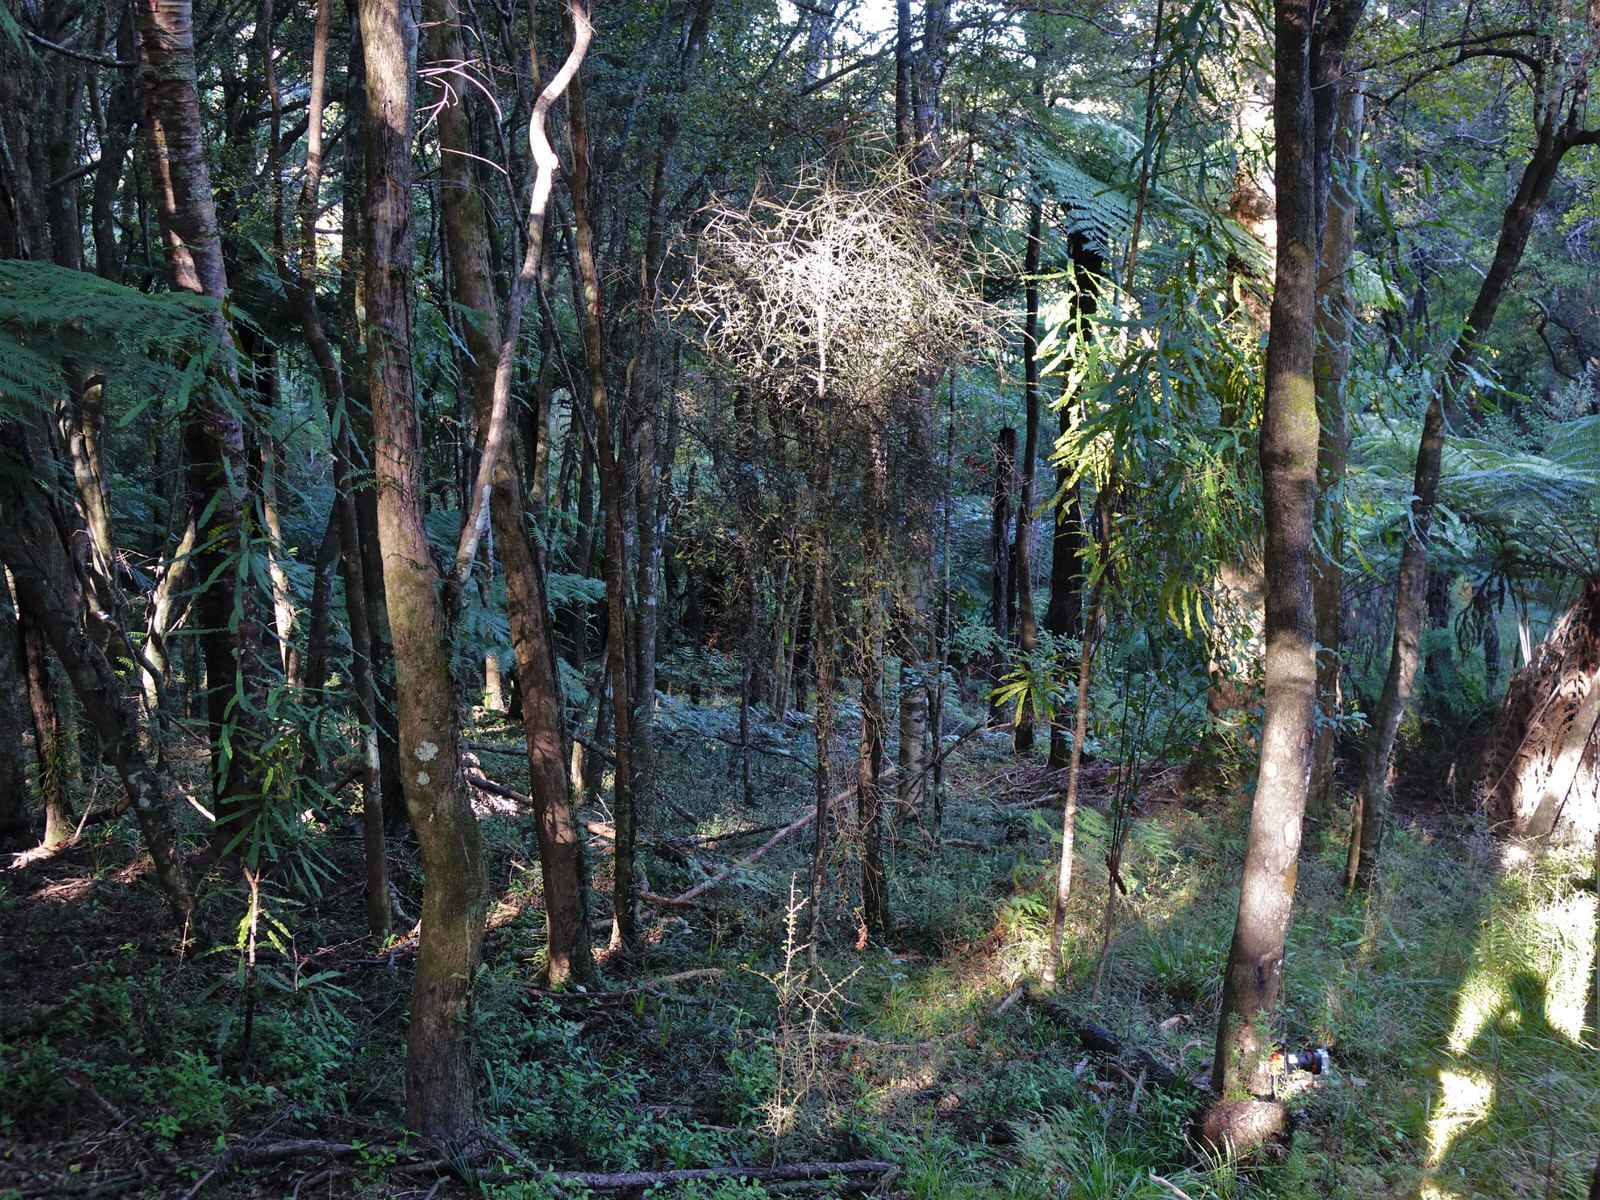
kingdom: Plantae
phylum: Tracheophyta
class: Pinopsida
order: Pinales
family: Podocarpaceae
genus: Prumnopitys
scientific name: Prumnopitys taxifolia
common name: Matai
